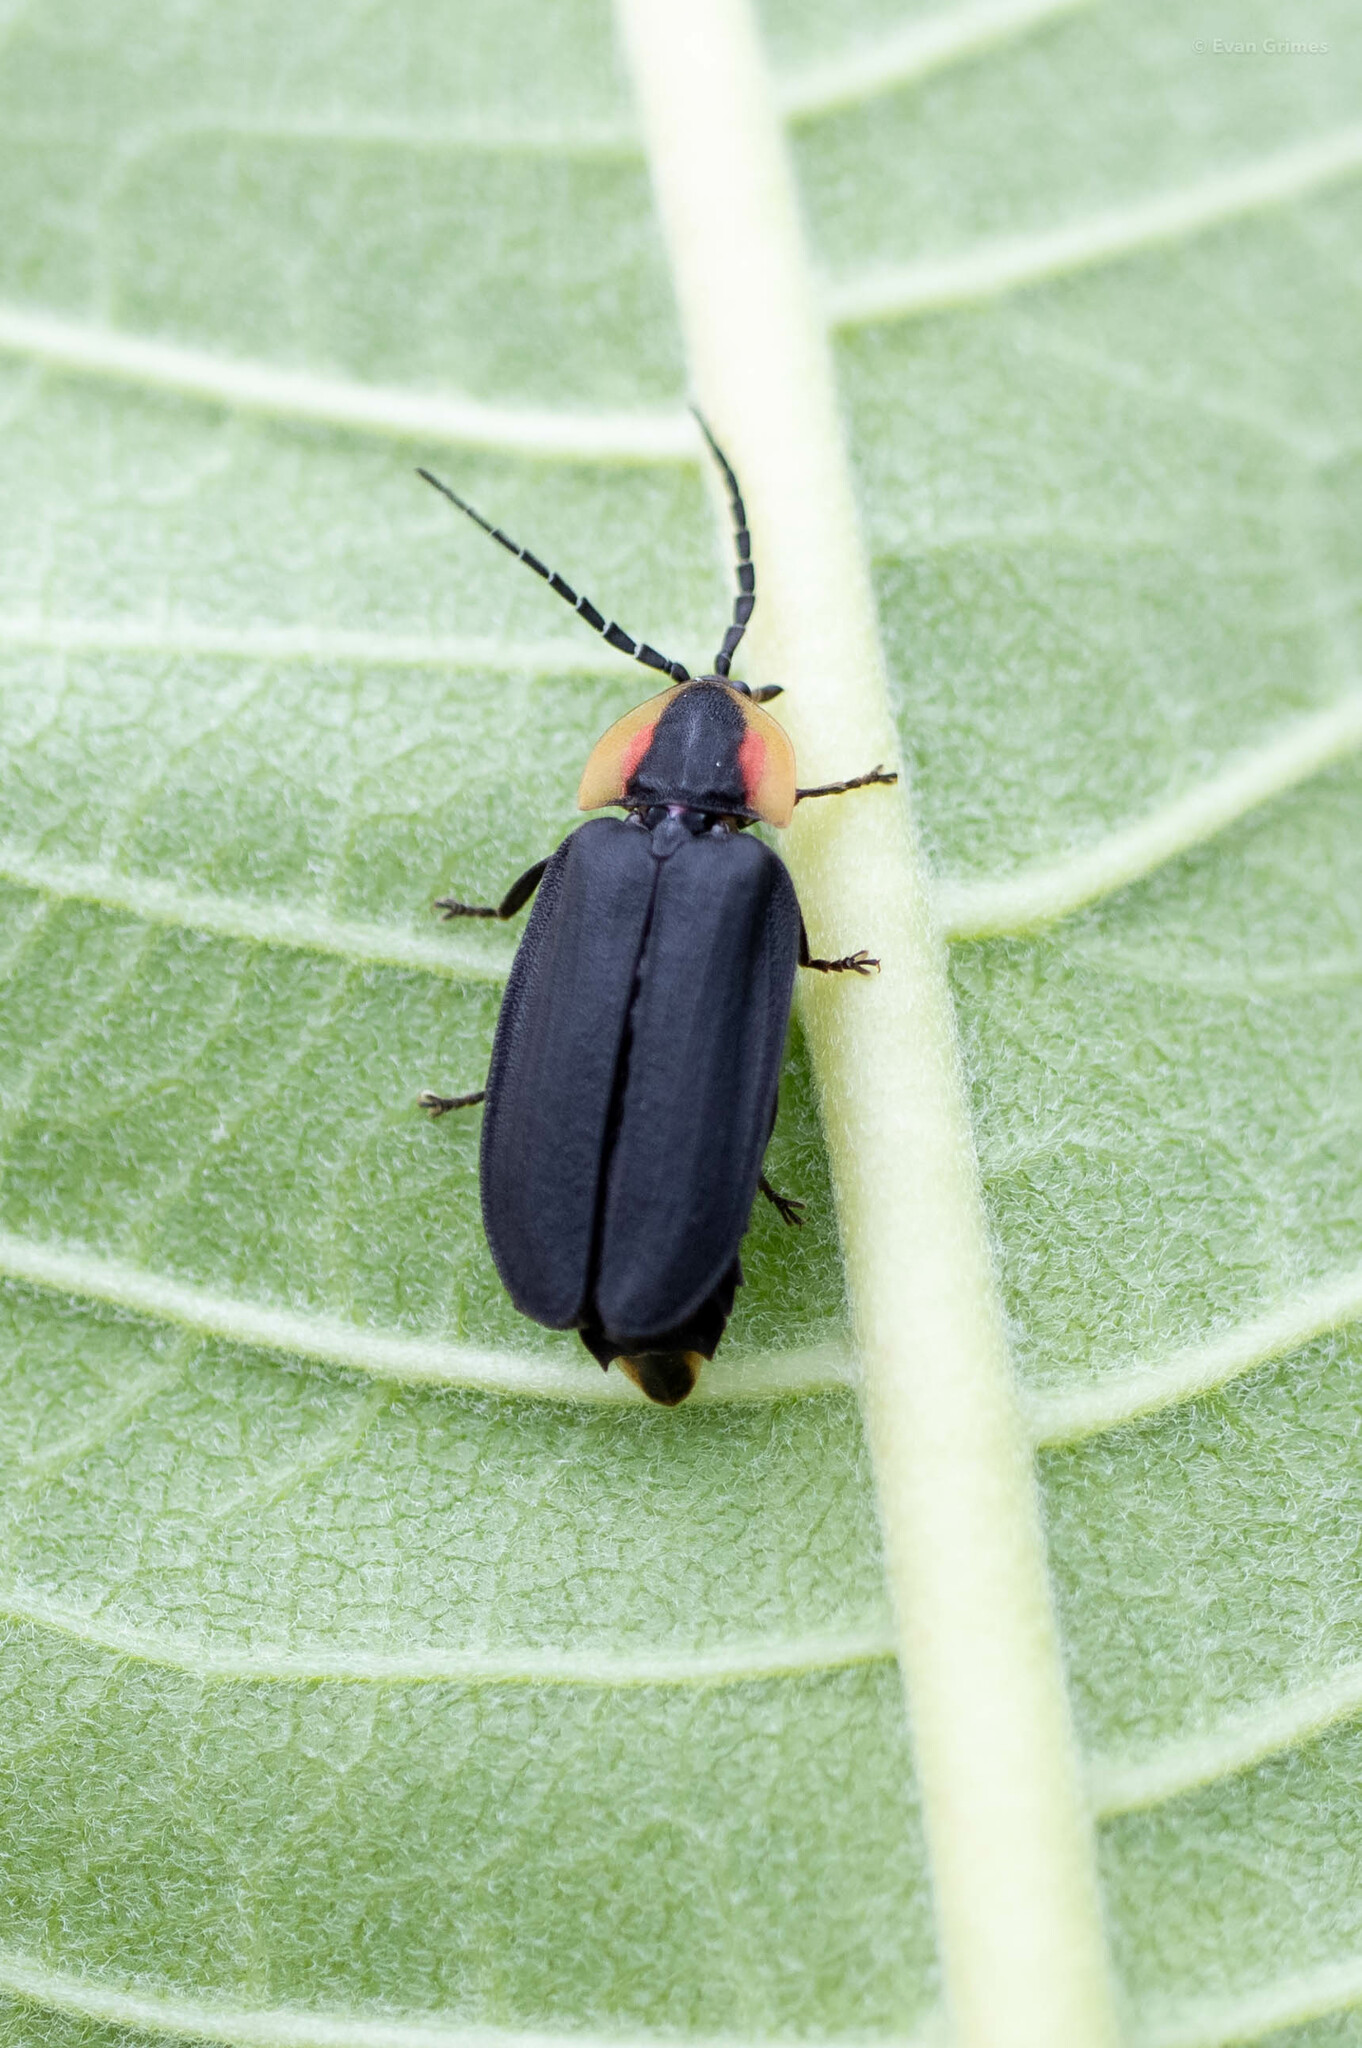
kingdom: Animalia
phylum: Arthropoda
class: Insecta
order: Coleoptera
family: Lampyridae
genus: Lucidota
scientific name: Lucidota atra
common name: Black firefly
